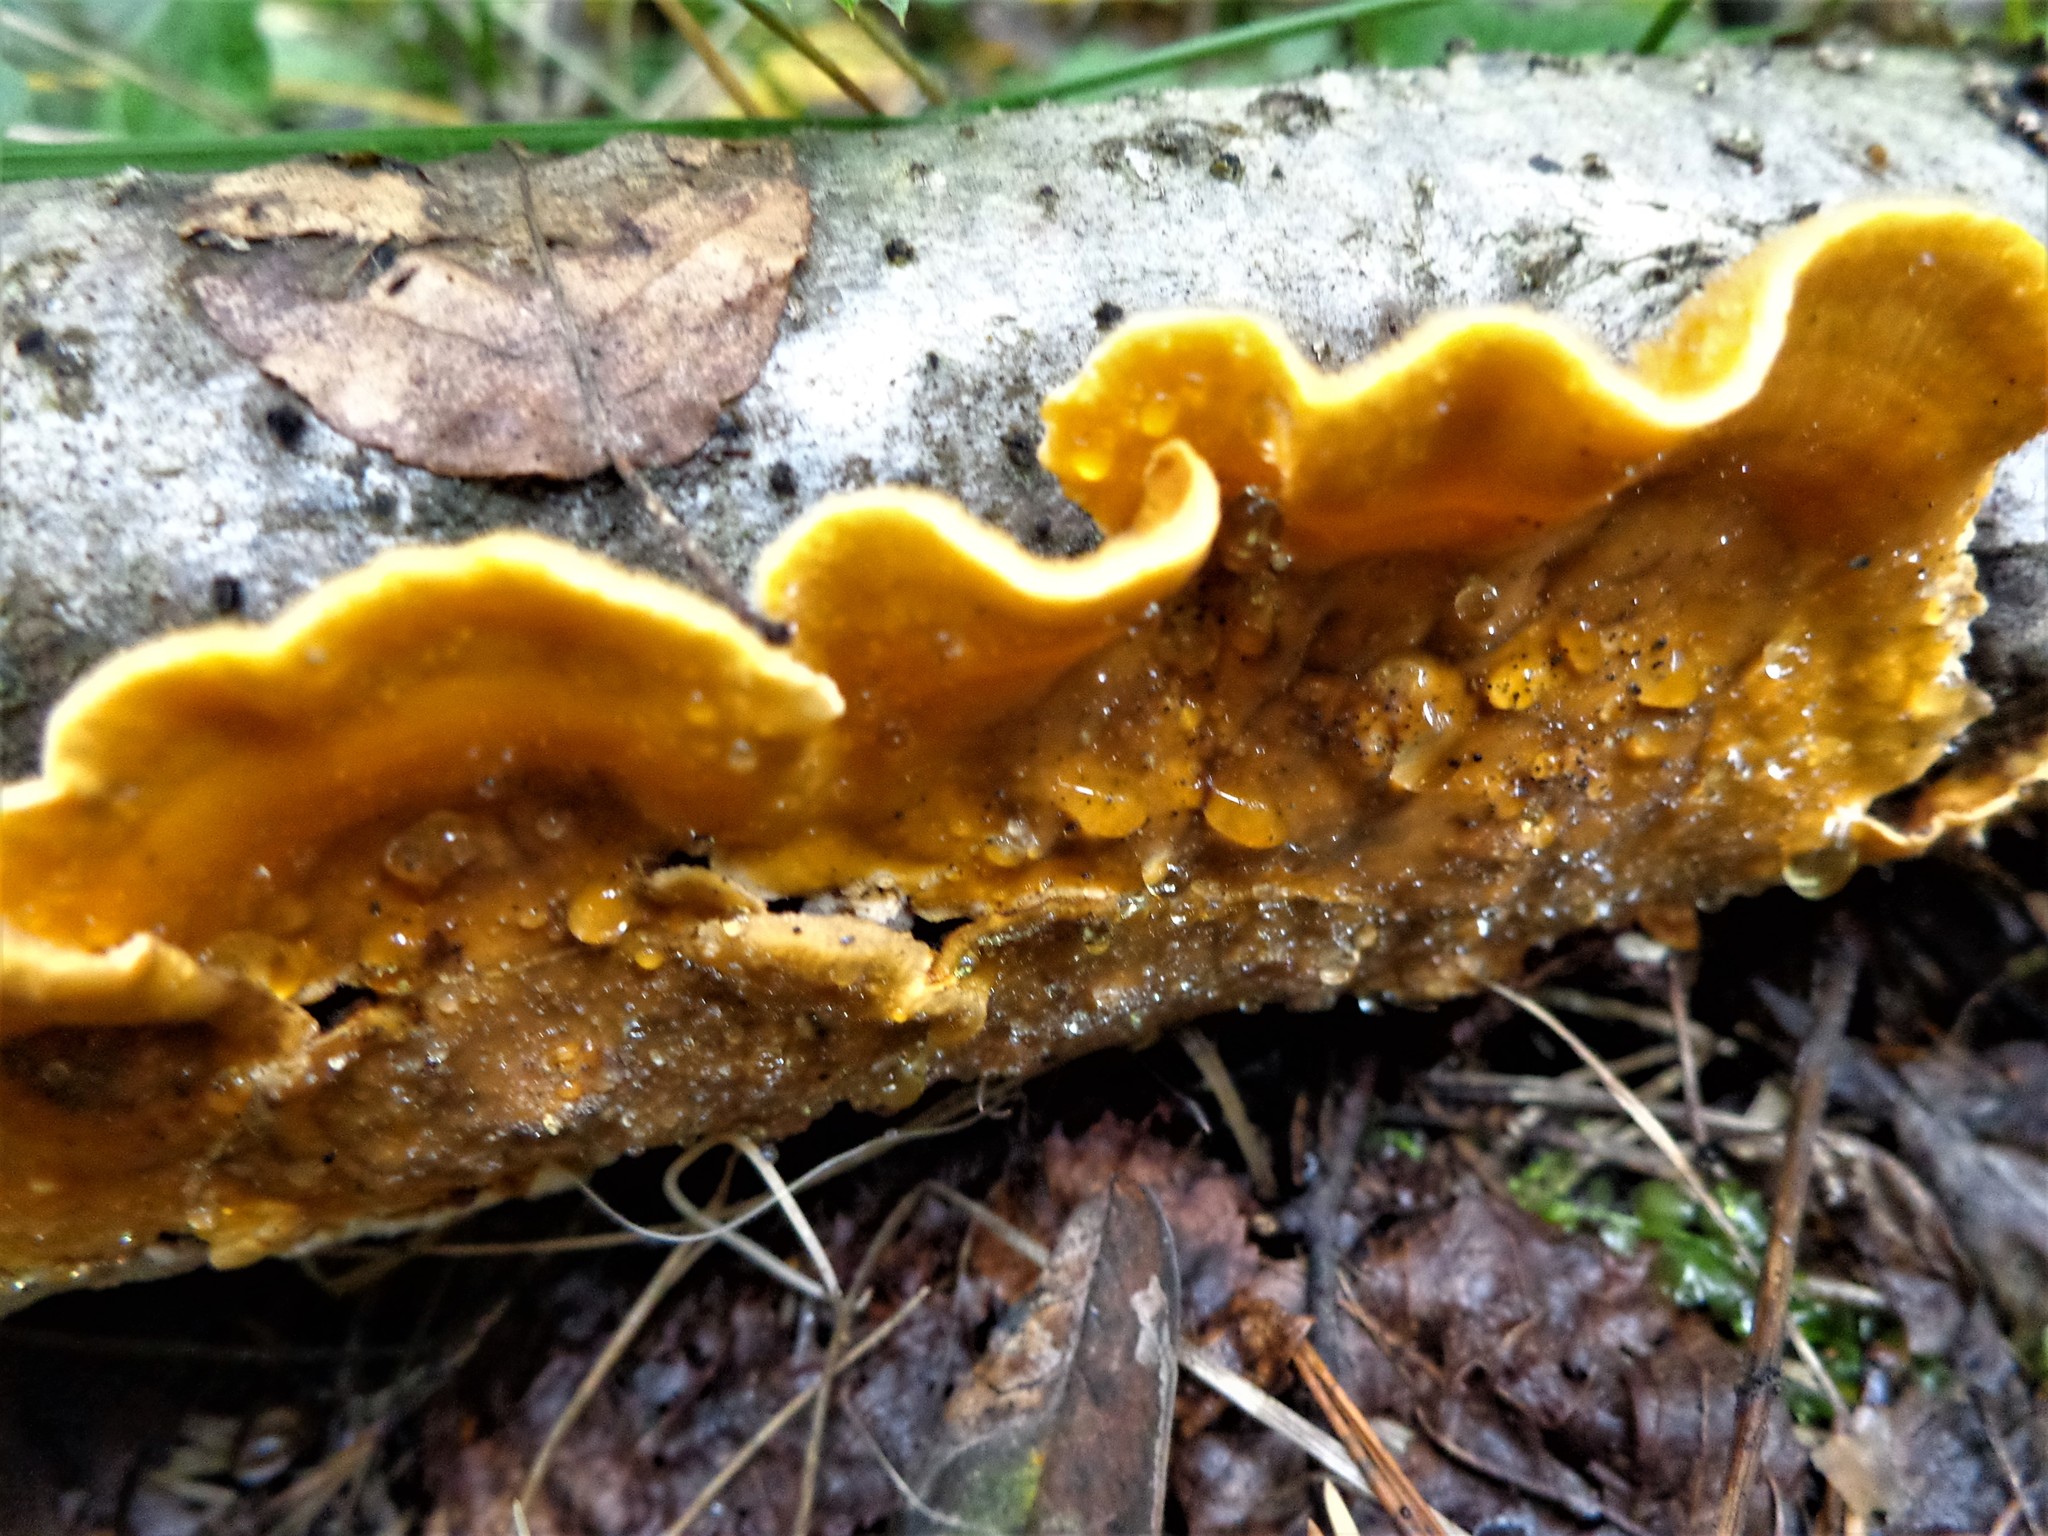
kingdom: Fungi
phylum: Basidiomycota
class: Agaricomycetes
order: Russulales
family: Stereaceae
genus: Stereum
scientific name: Stereum hirsutum
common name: Hairy curtain crust
